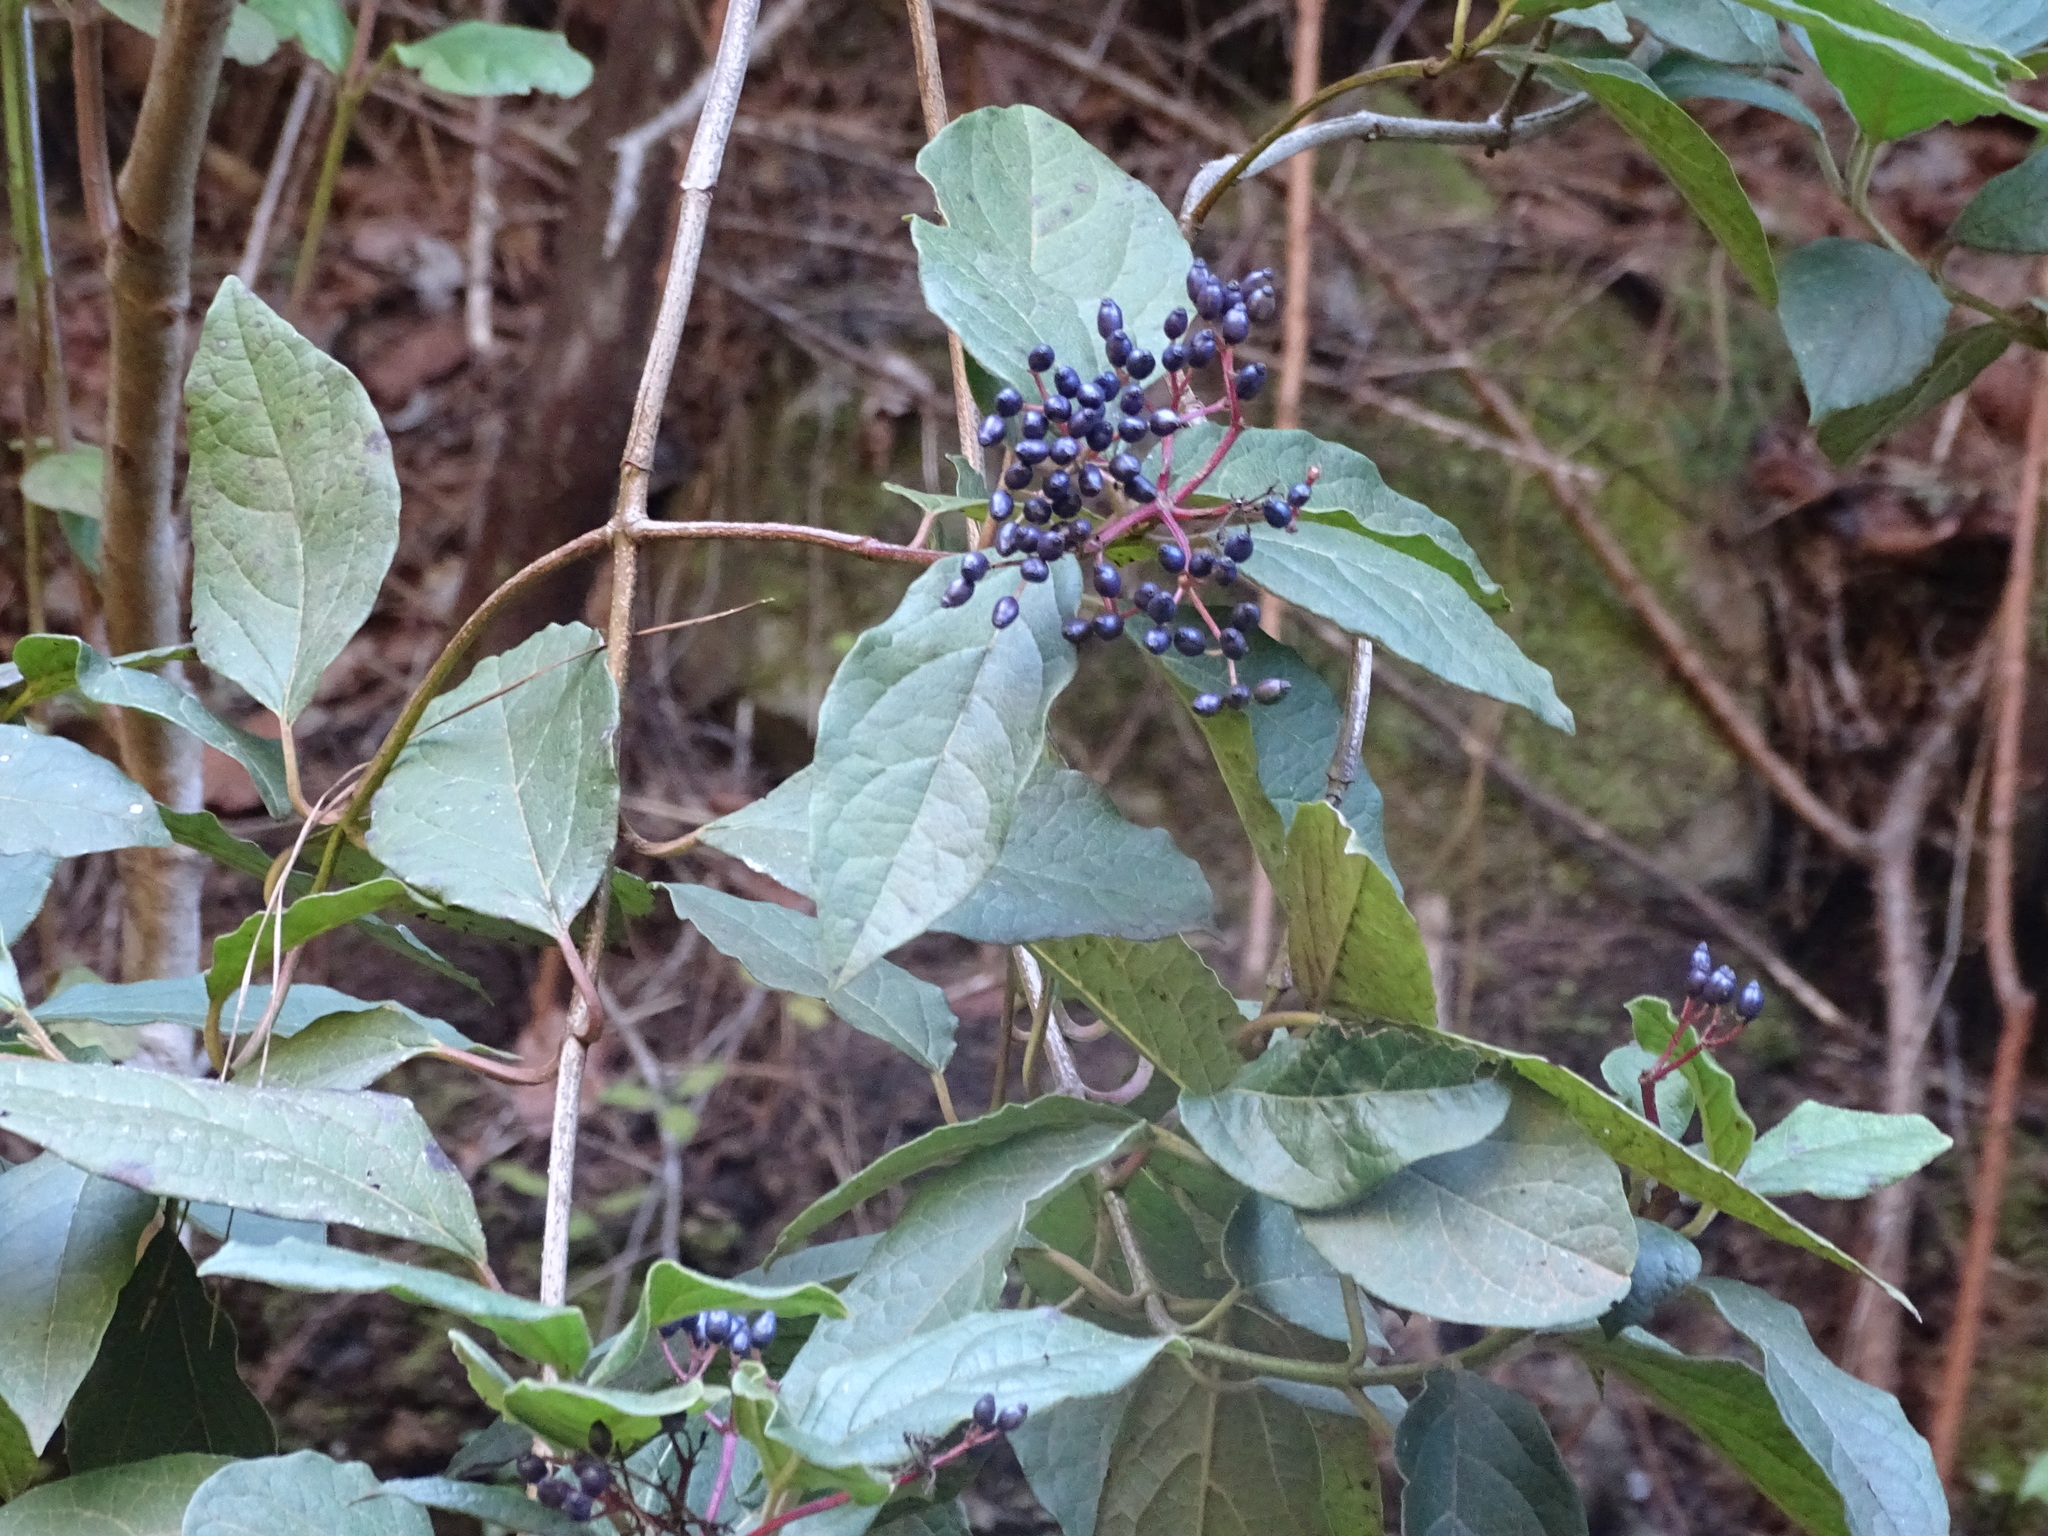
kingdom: Plantae
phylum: Tracheophyta
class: Magnoliopsida
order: Dipsacales
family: Viburnaceae
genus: Viburnum
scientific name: Viburnum rugosum
